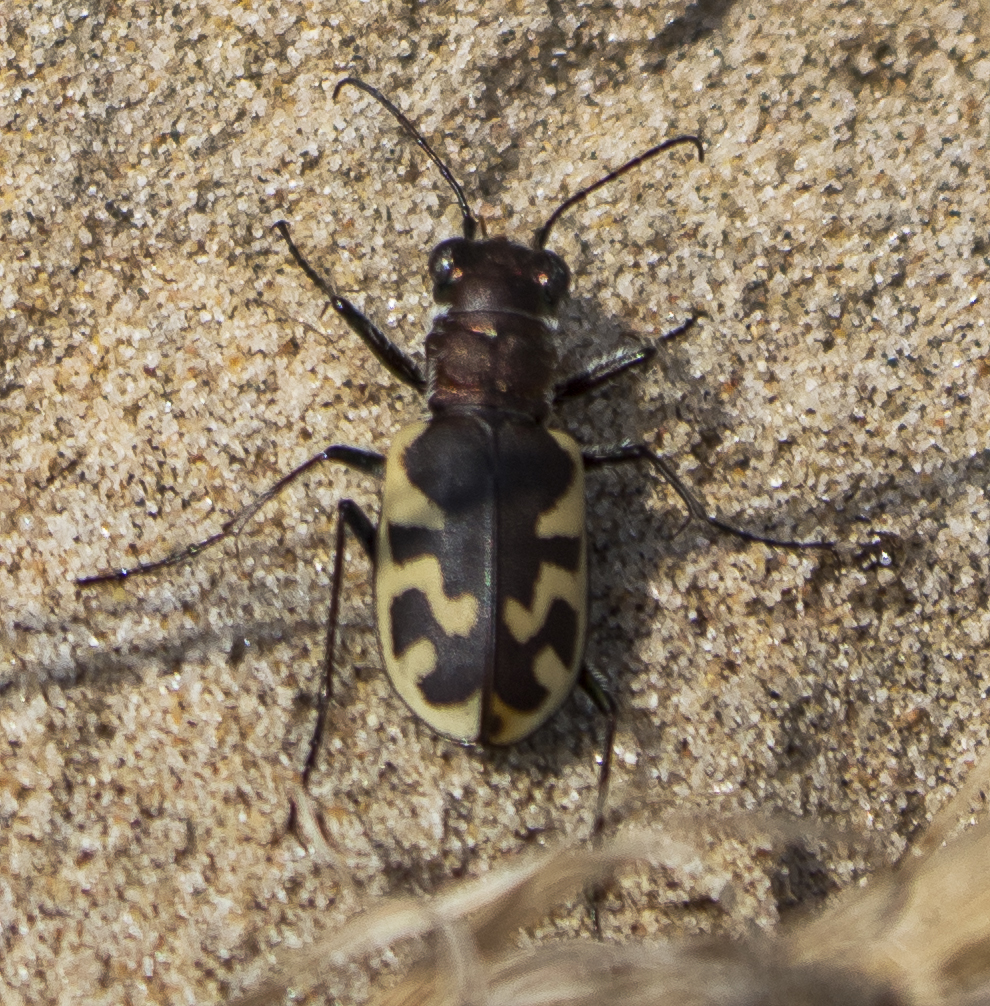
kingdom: Animalia
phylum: Arthropoda
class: Insecta
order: Coleoptera
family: Carabidae
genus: Cicindela
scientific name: Cicindela formosa
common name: Big sand tiger beetle
